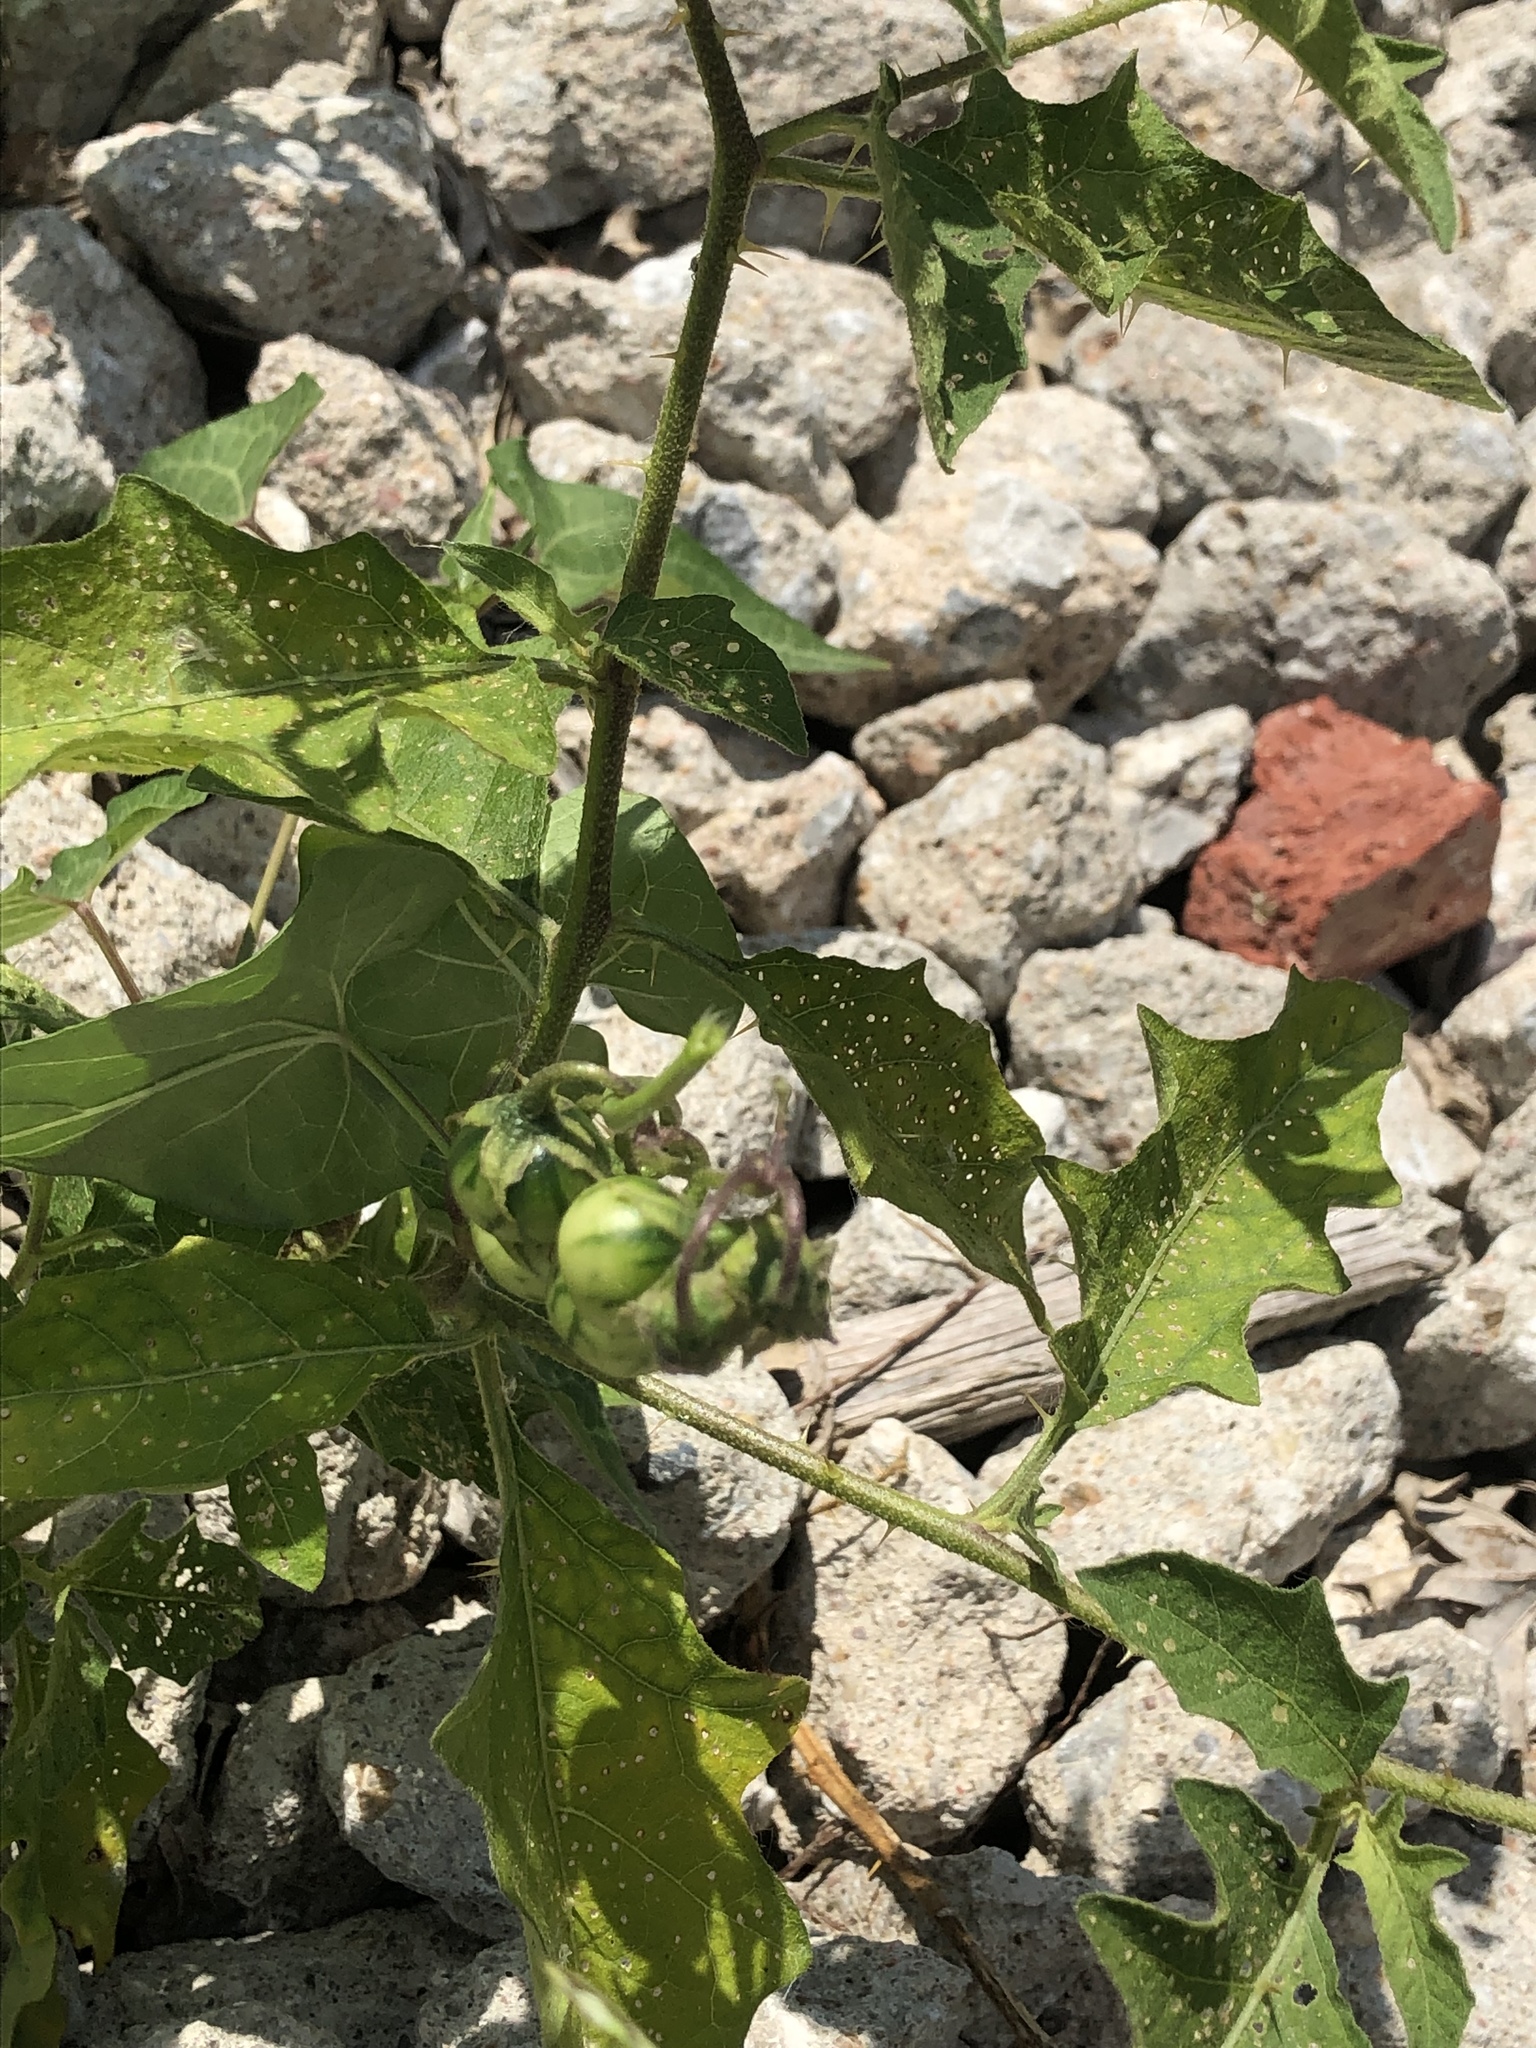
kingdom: Plantae
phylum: Tracheophyta
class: Magnoliopsida
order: Solanales
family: Solanaceae
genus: Solanum
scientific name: Solanum carolinense
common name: Horse-nettle
